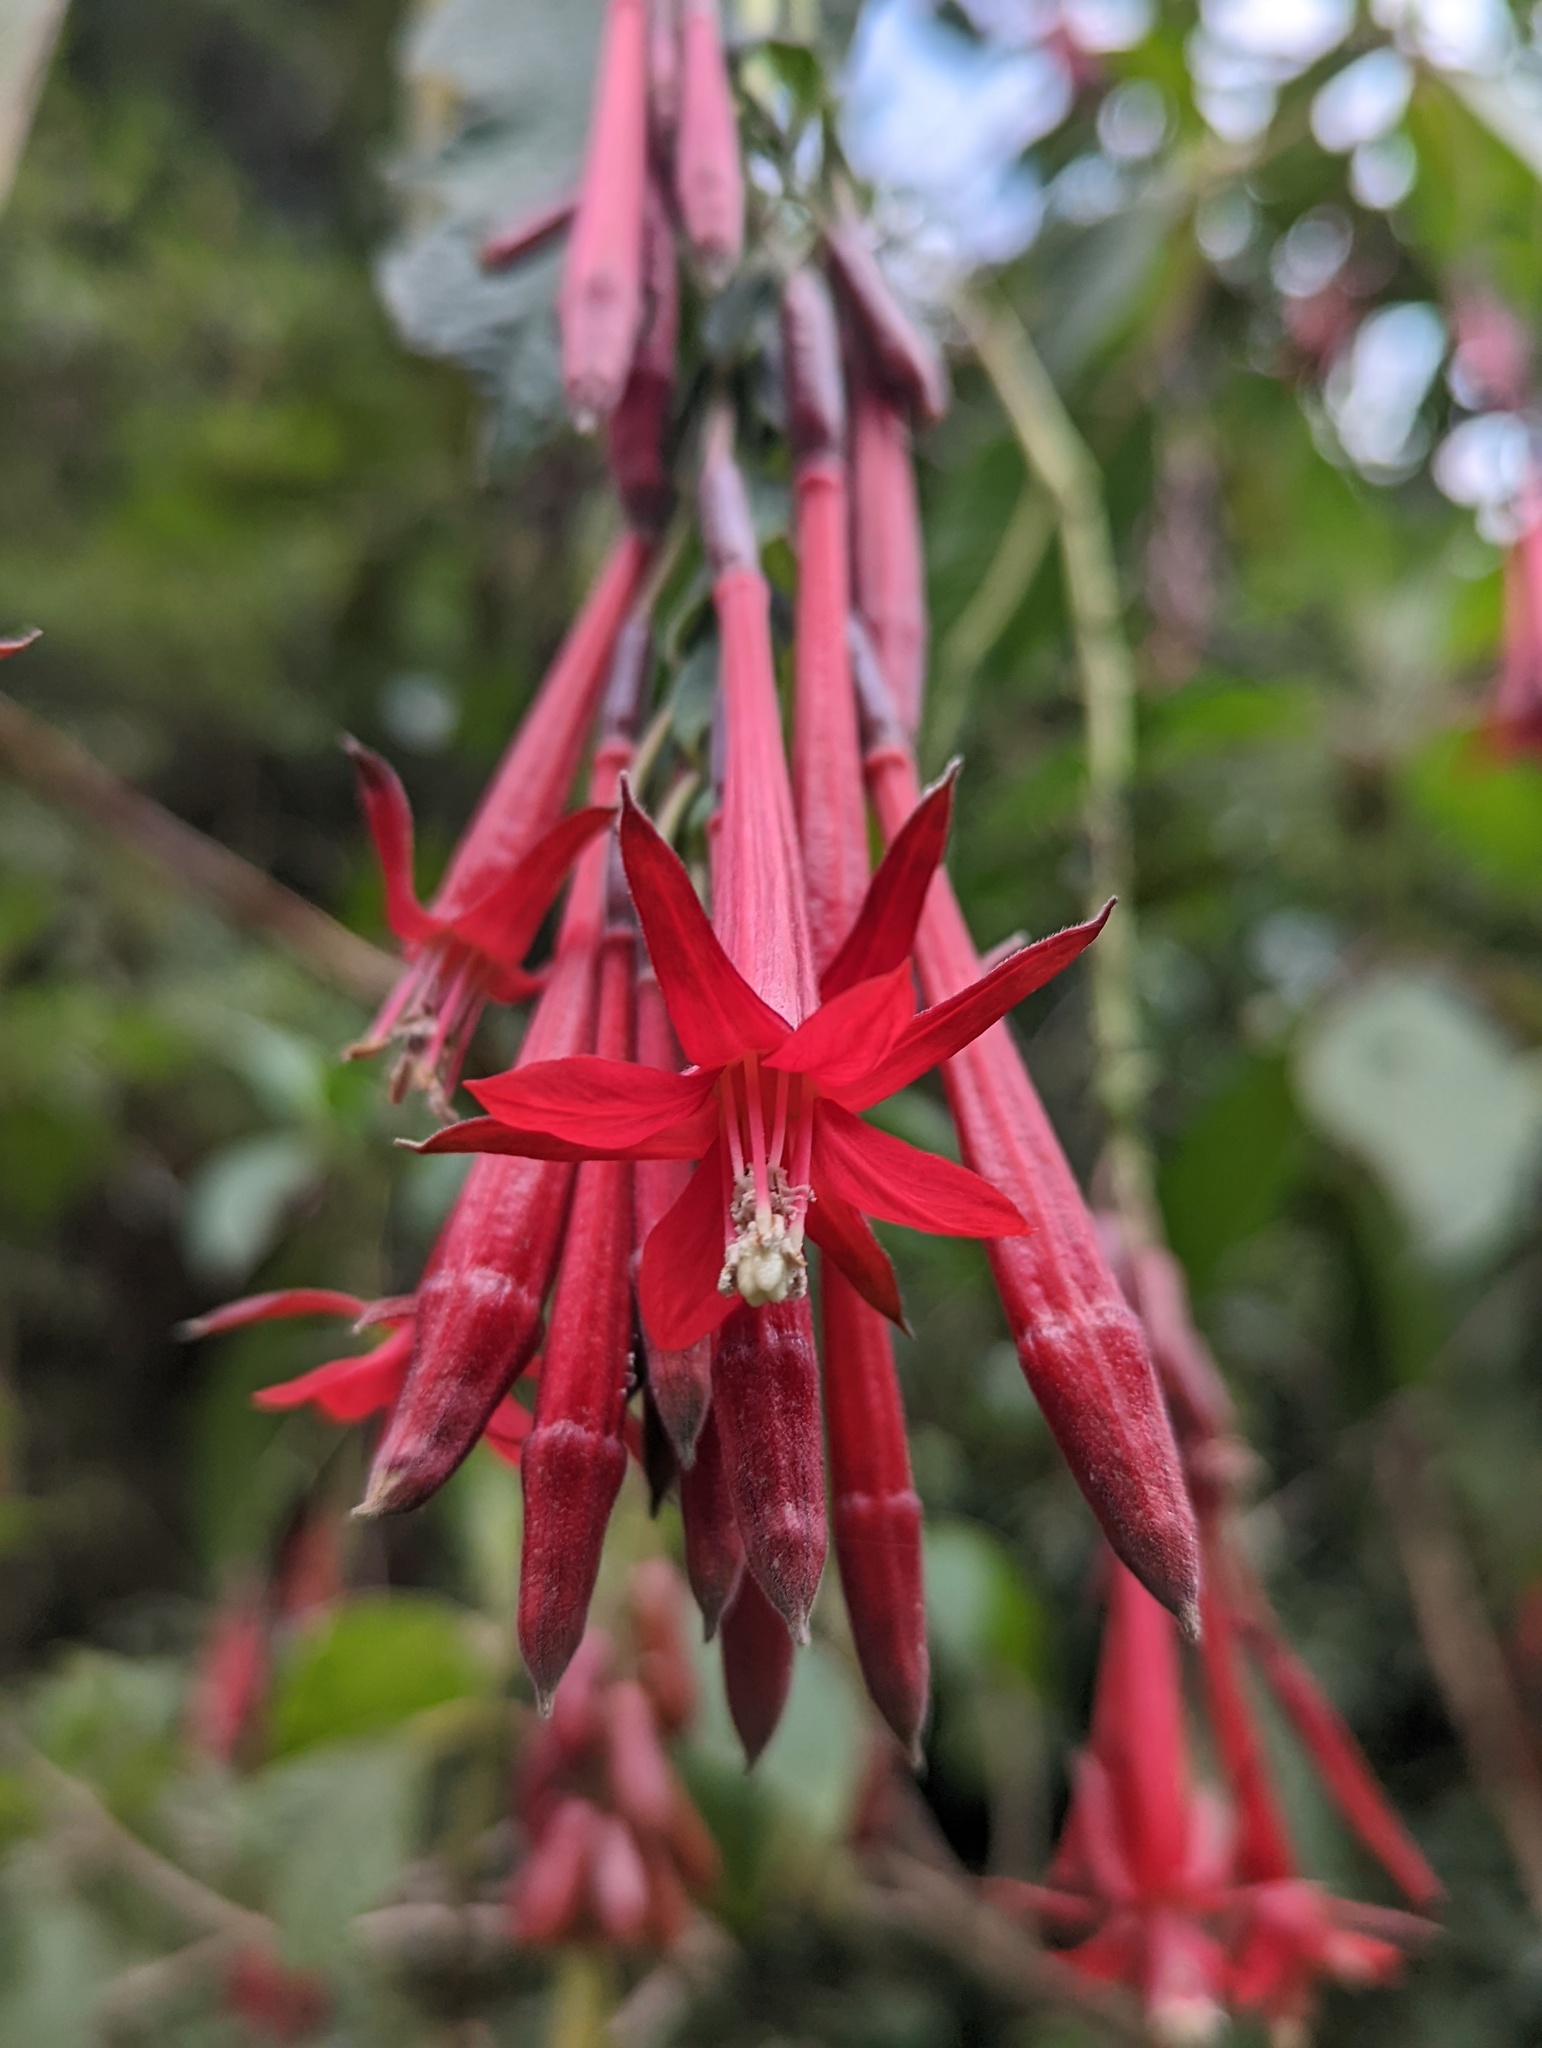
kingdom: Plantae
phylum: Tracheophyta
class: Magnoliopsida
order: Myrtales
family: Onagraceae
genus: Fuchsia
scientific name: Fuchsia boliviana
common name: Bolivian fuchsia
